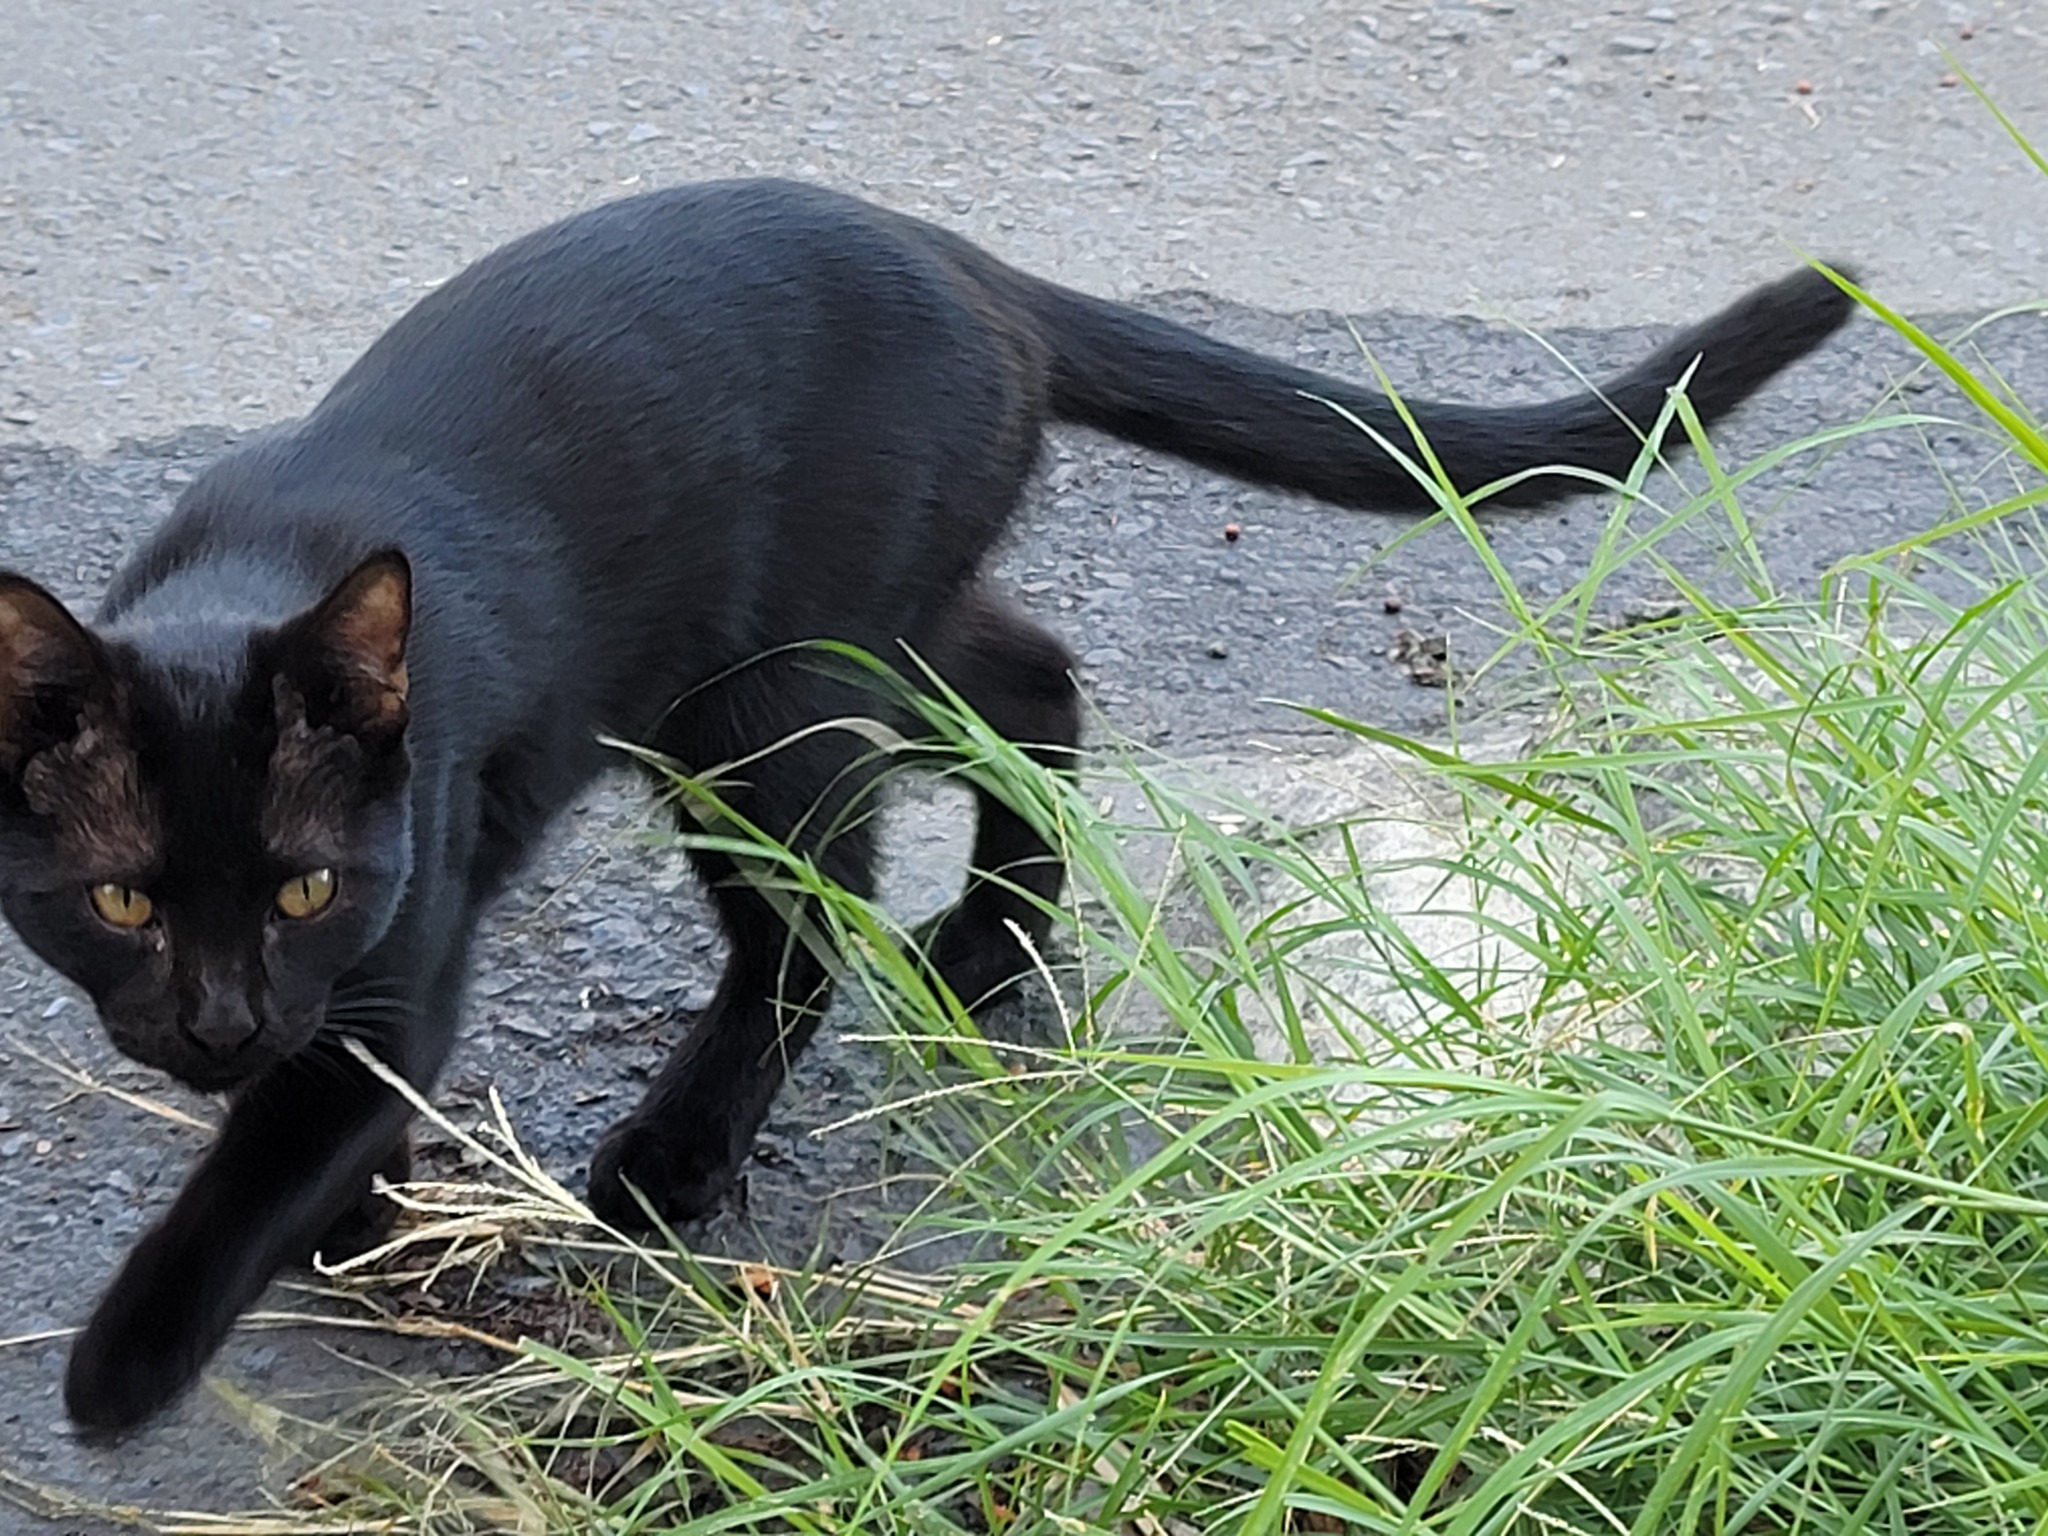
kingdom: Animalia
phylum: Chordata
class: Mammalia
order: Carnivora
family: Felidae
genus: Felis
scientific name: Felis catus
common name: Domestic cat
